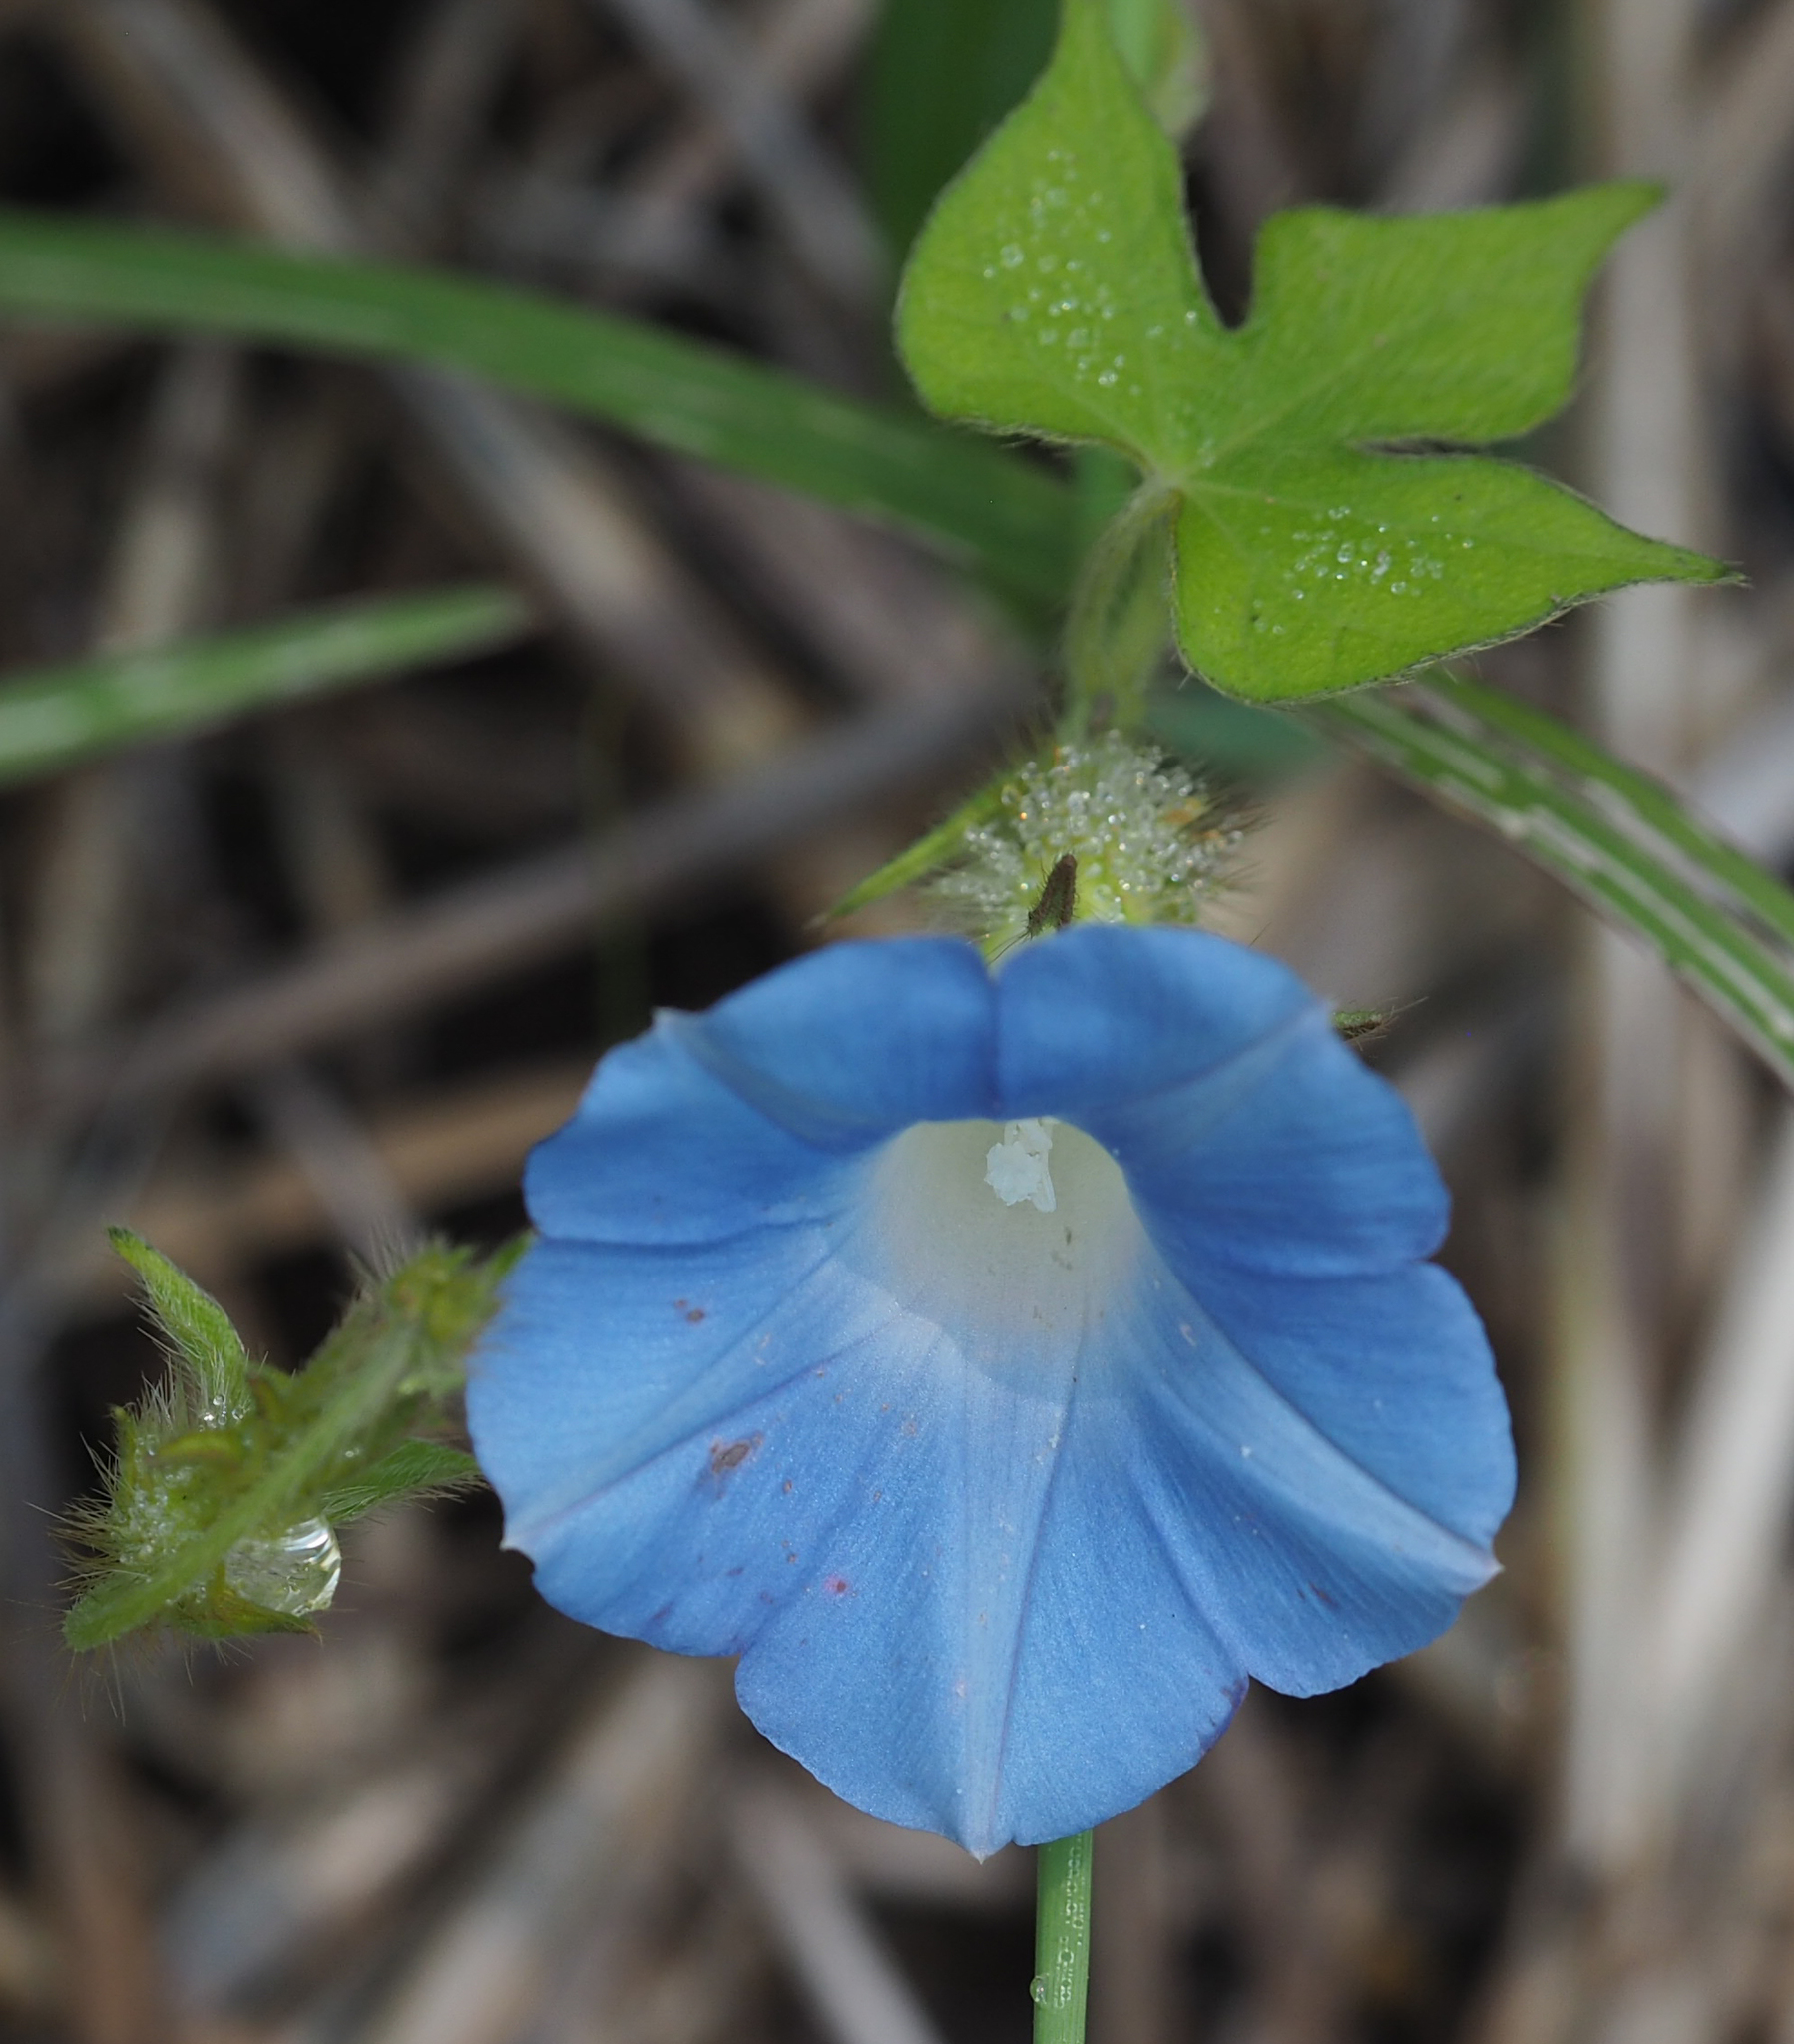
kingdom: Plantae
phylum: Tracheophyta
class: Magnoliopsida
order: Solanales
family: Convolvulaceae
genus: Ipomoea
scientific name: Ipomoea hederacea
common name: Ivy-leaved morning-glory
